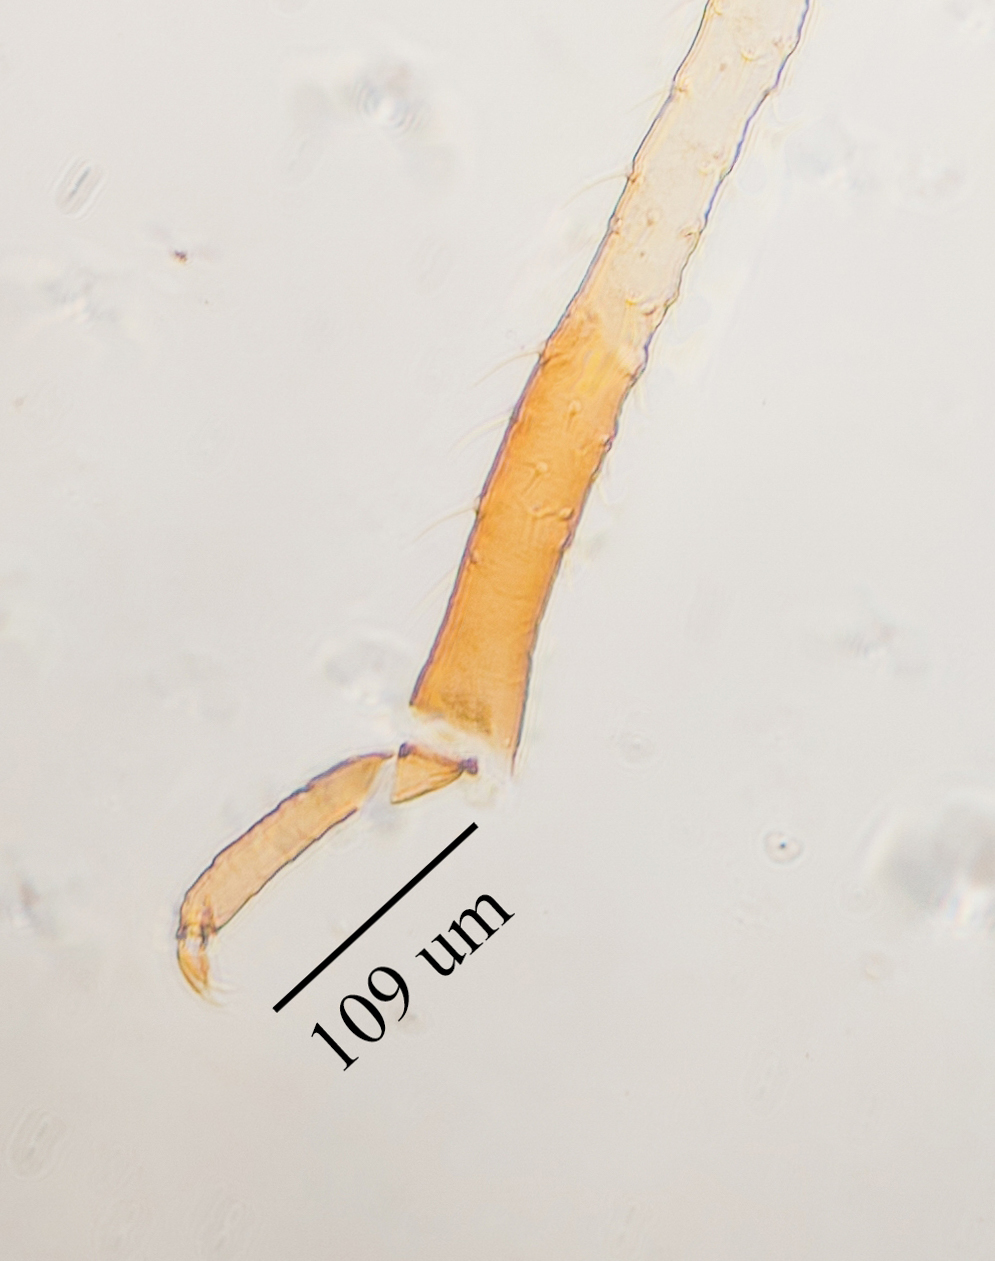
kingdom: Animalia
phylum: Arthropoda
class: Insecta
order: Hemiptera
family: Aphididae
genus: Hysteroneura
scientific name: Hysteroneura setariae
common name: Rusty plum aphid
